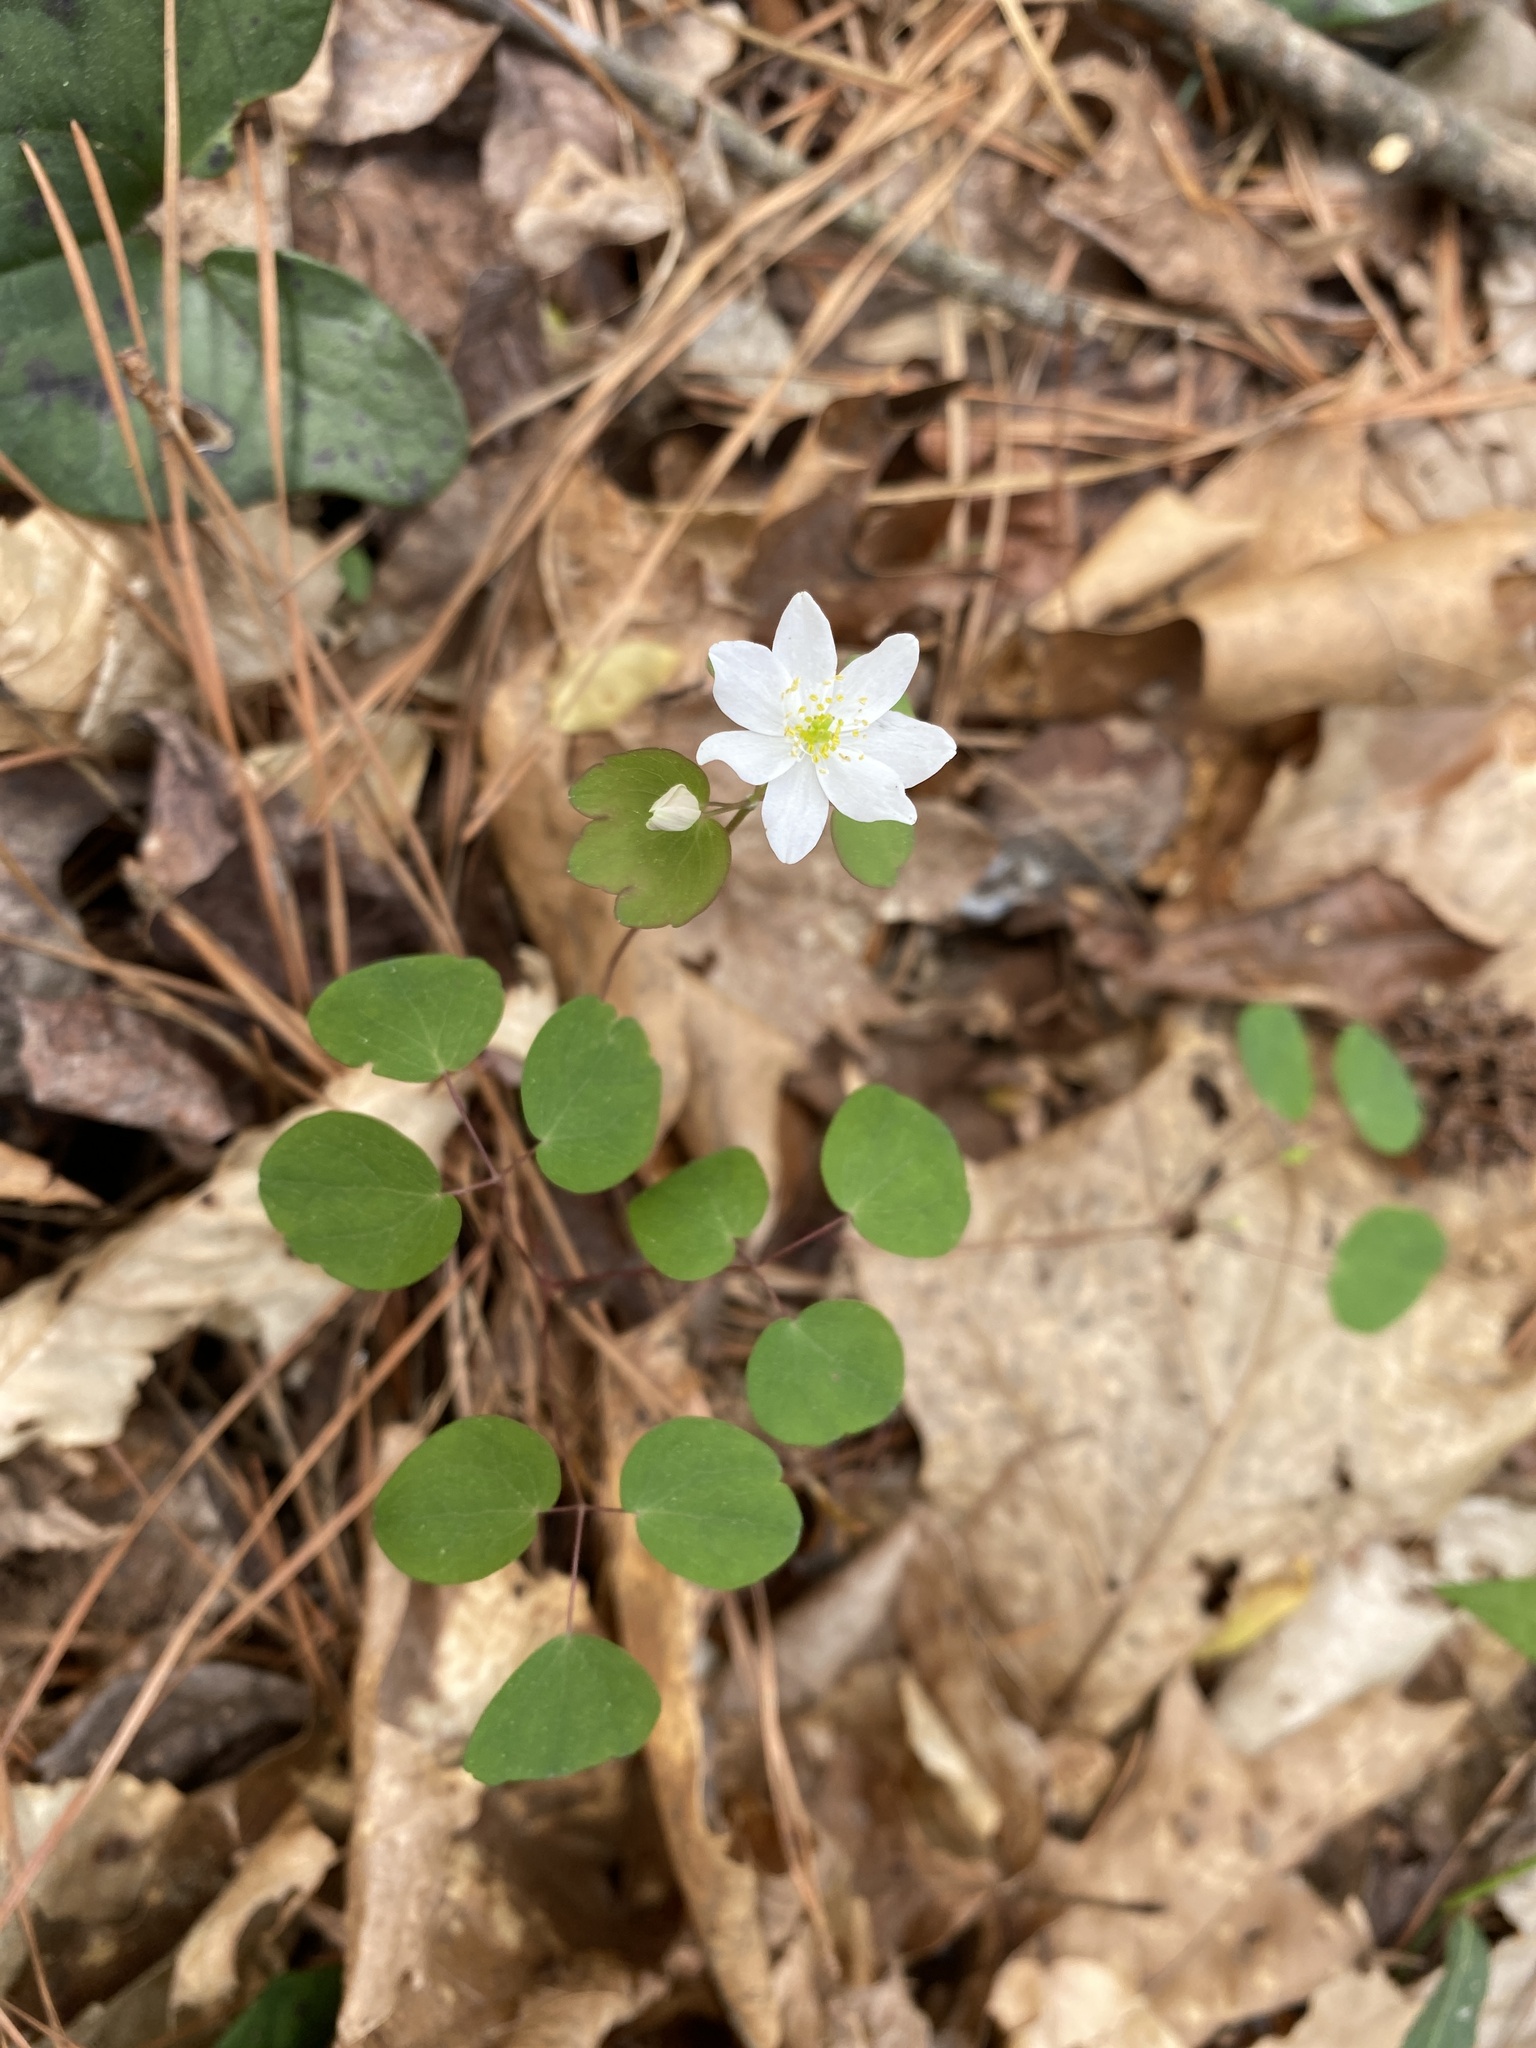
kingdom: Plantae
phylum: Tracheophyta
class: Magnoliopsida
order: Ranunculales
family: Ranunculaceae
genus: Thalictrum
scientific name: Thalictrum thalictroides
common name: Rue-anemone
